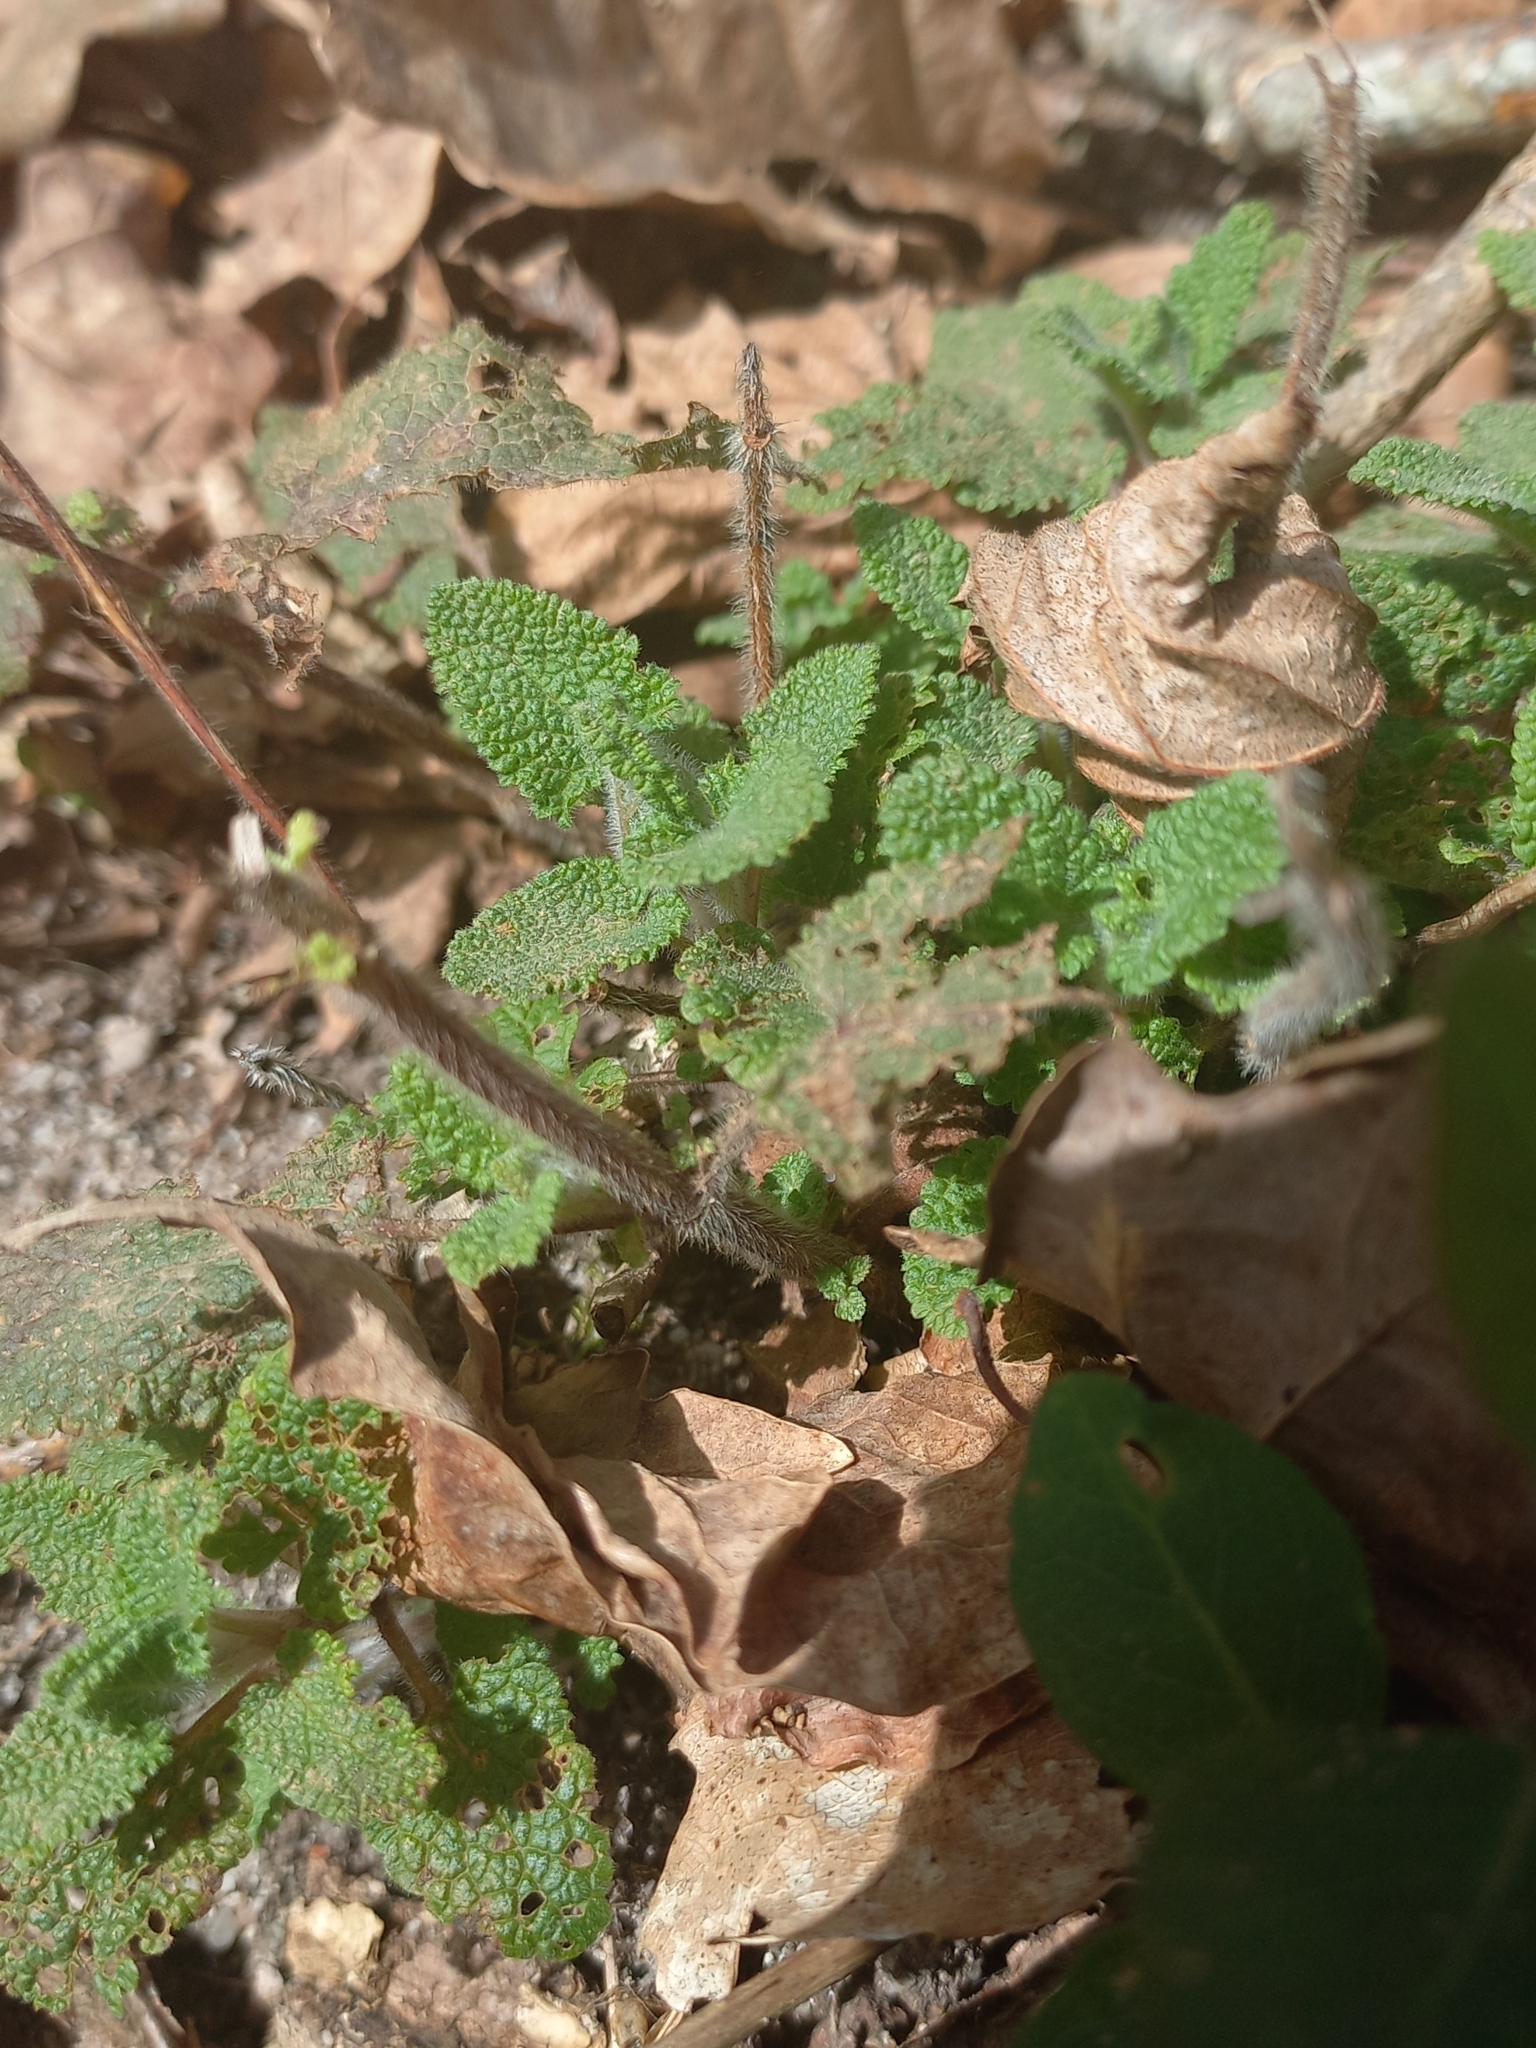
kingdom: Plantae
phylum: Tracheophyta
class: Magnoliopsida
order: Lamiales
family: Lamiaceae
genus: Teucrium
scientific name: Teucrium scorodonia
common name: Woodland germander
